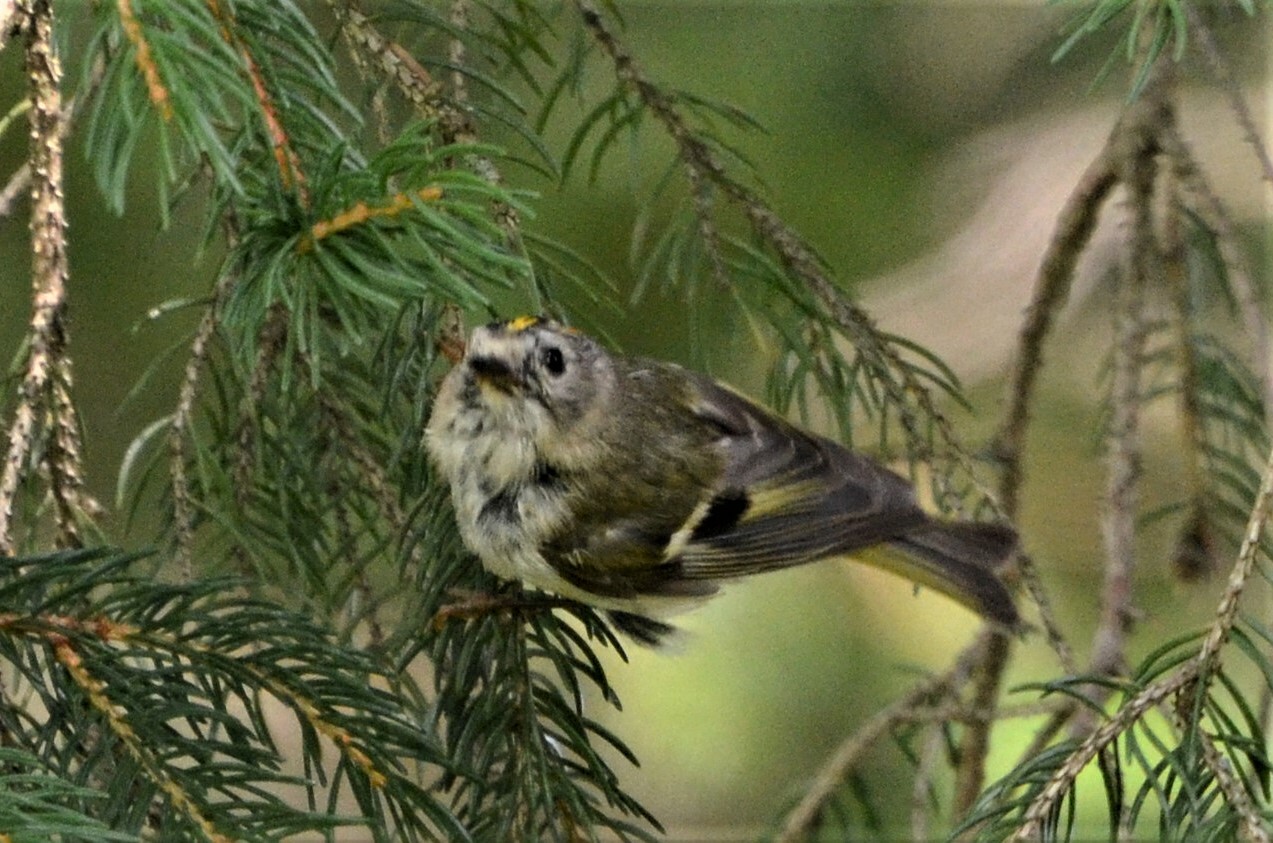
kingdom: Animalia
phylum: Chordata
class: Aves
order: Passeriformes
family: Regulidae
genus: Regulus
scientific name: Regulus regulus
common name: Goldcrest
